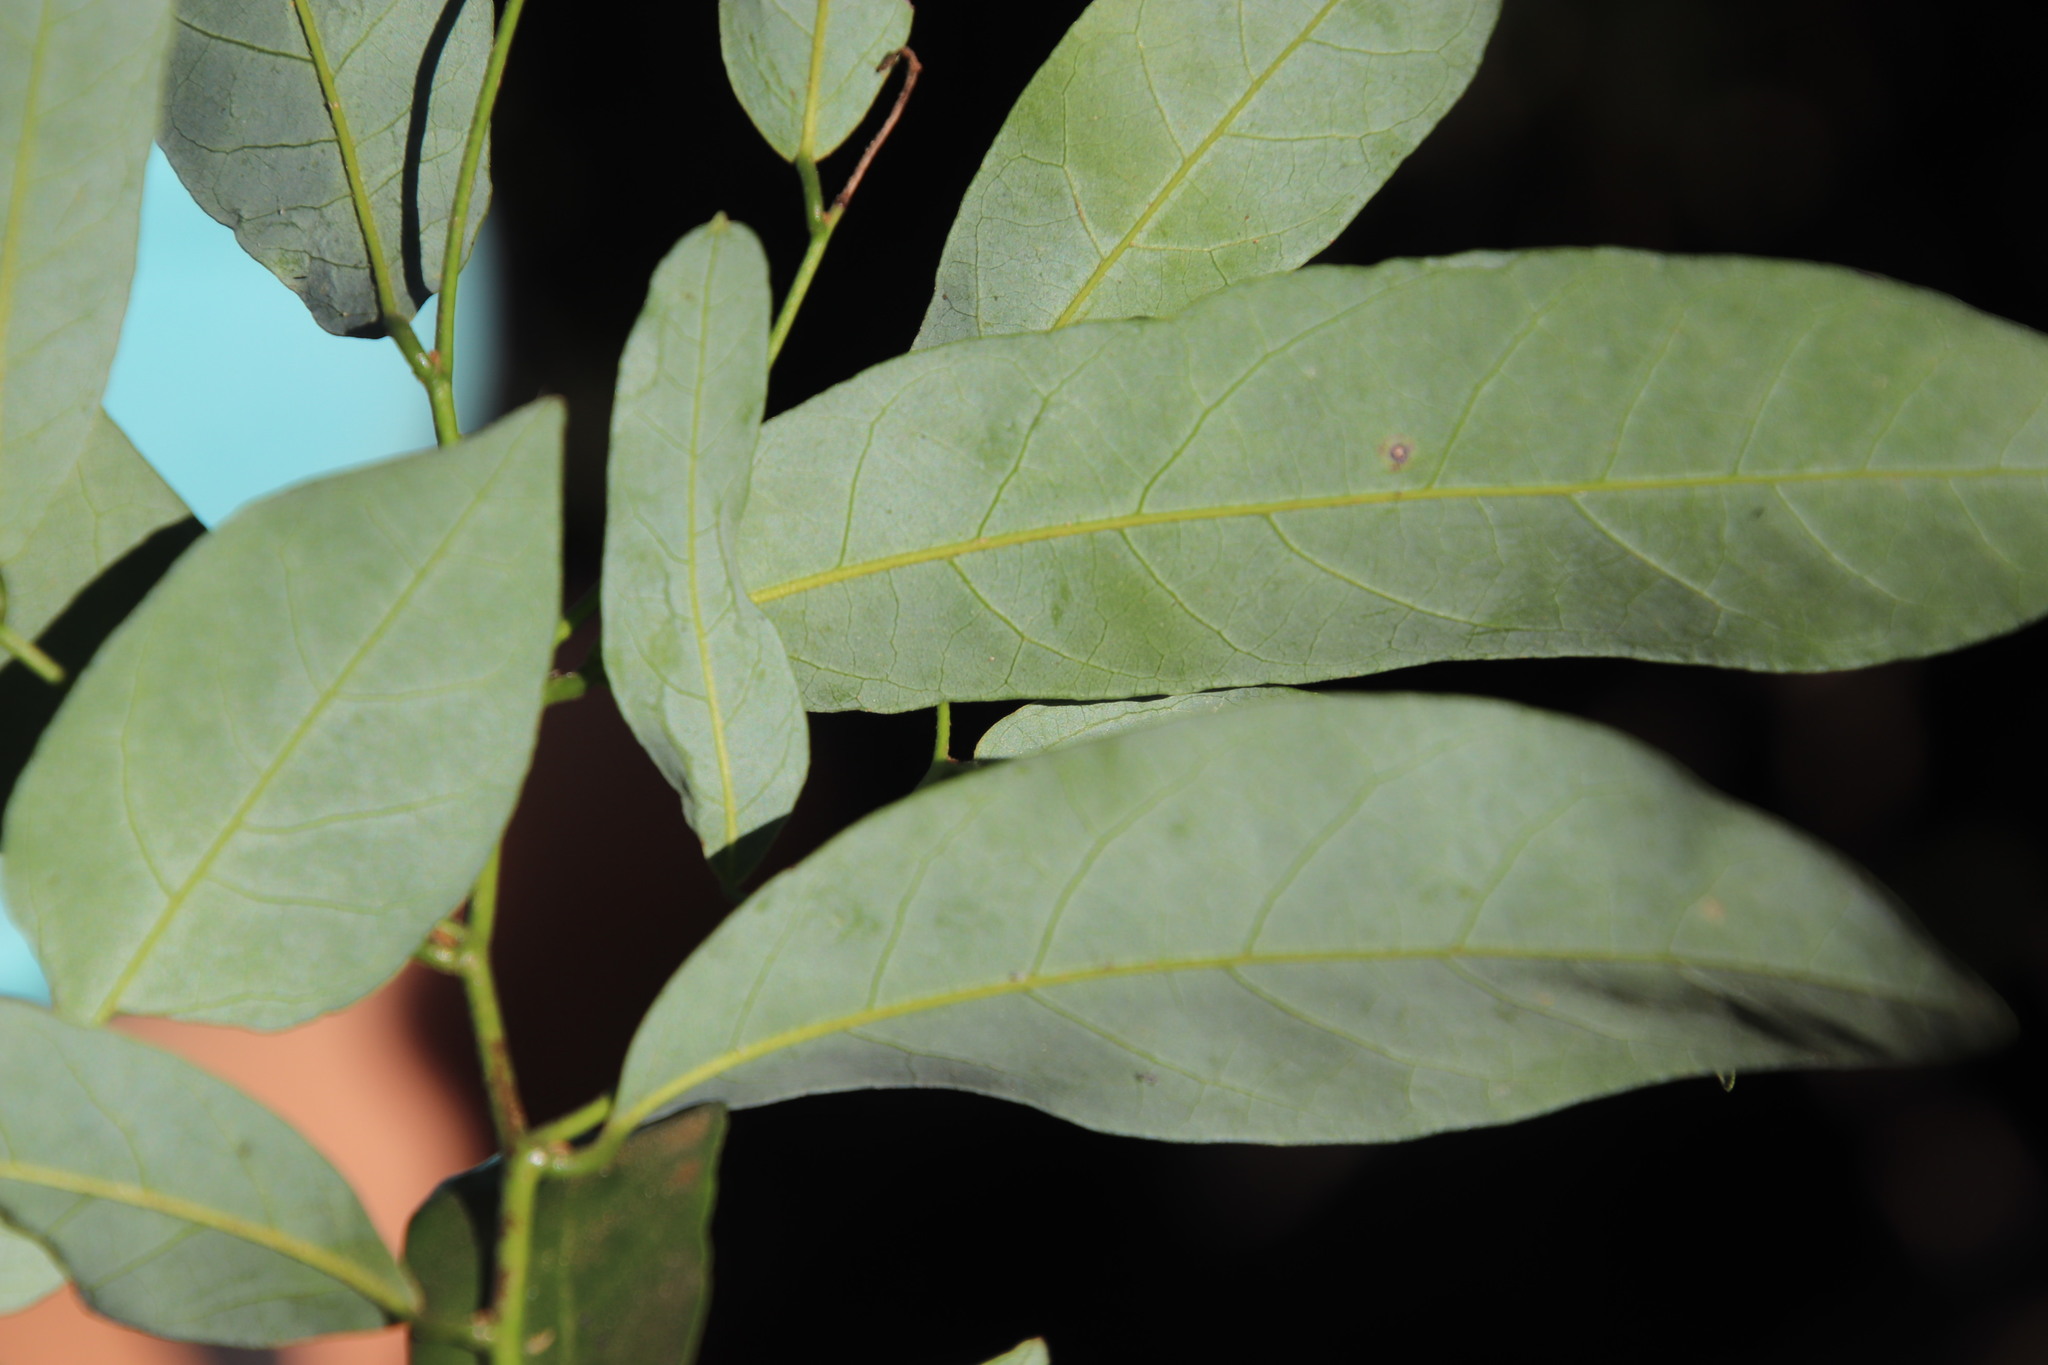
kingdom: Plantae
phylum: Tracheophyta
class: Magnoliopsida
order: Magnoliales
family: Annonaceae
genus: Monanthotaxis
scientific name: Monanthotaxis caffra
